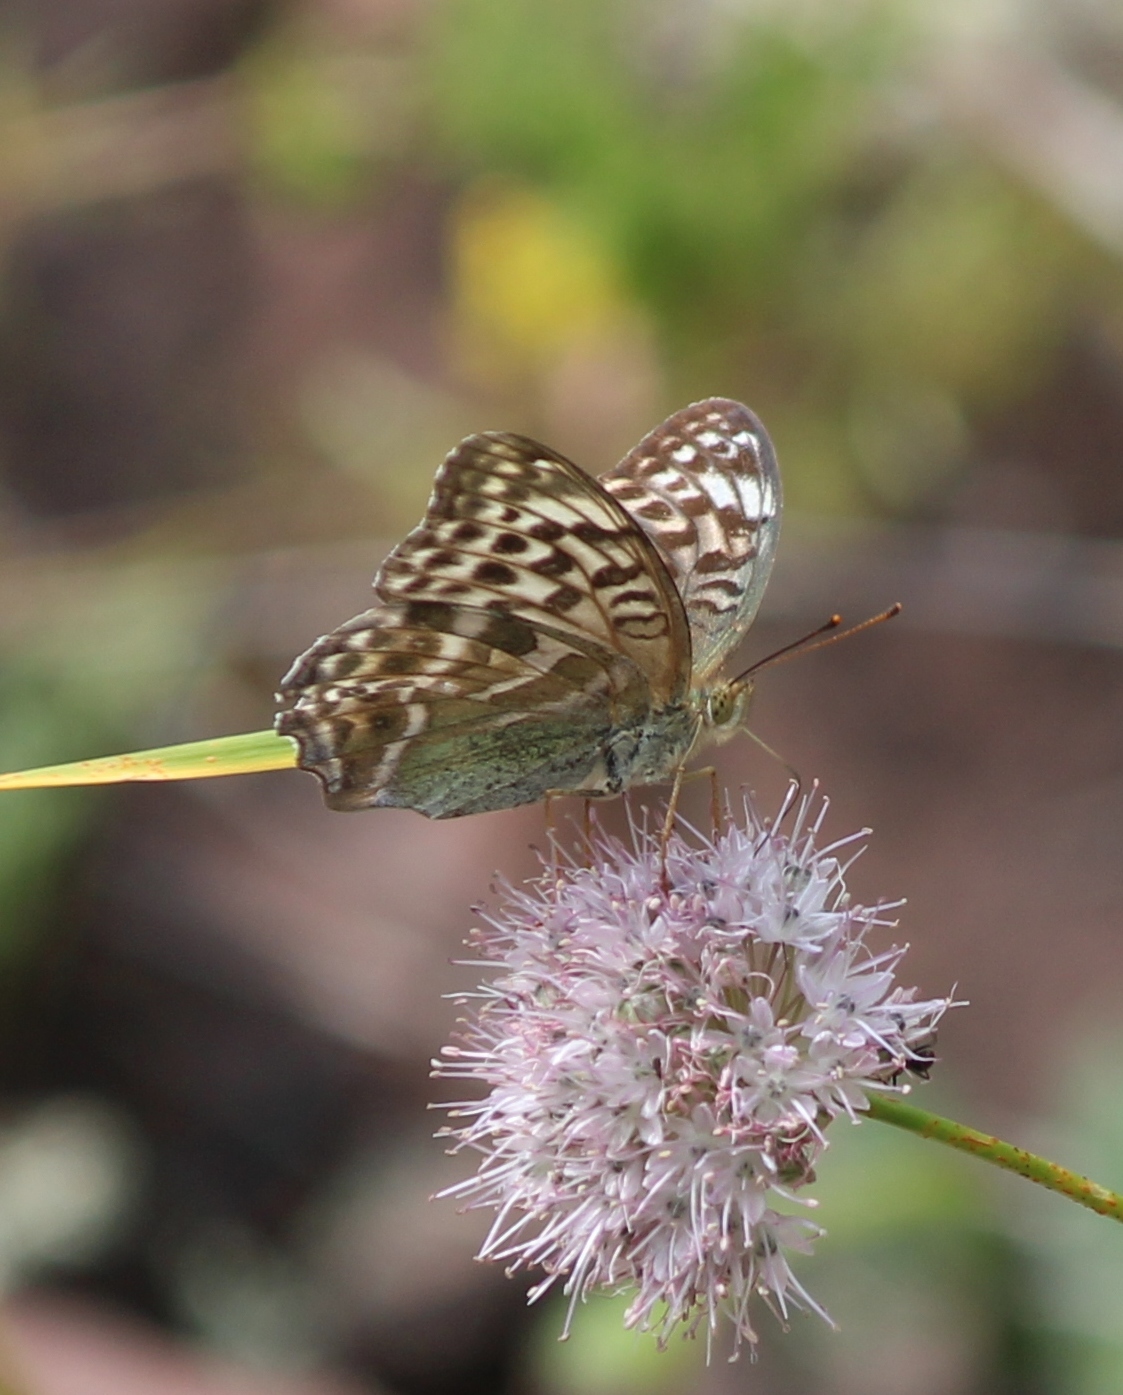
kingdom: Animalia
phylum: Arthropoda
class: Insecta
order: Lepidoptera
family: Nymphalidae
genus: Argynnis
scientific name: Argynnis paphia
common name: Silver-washed fritillary
